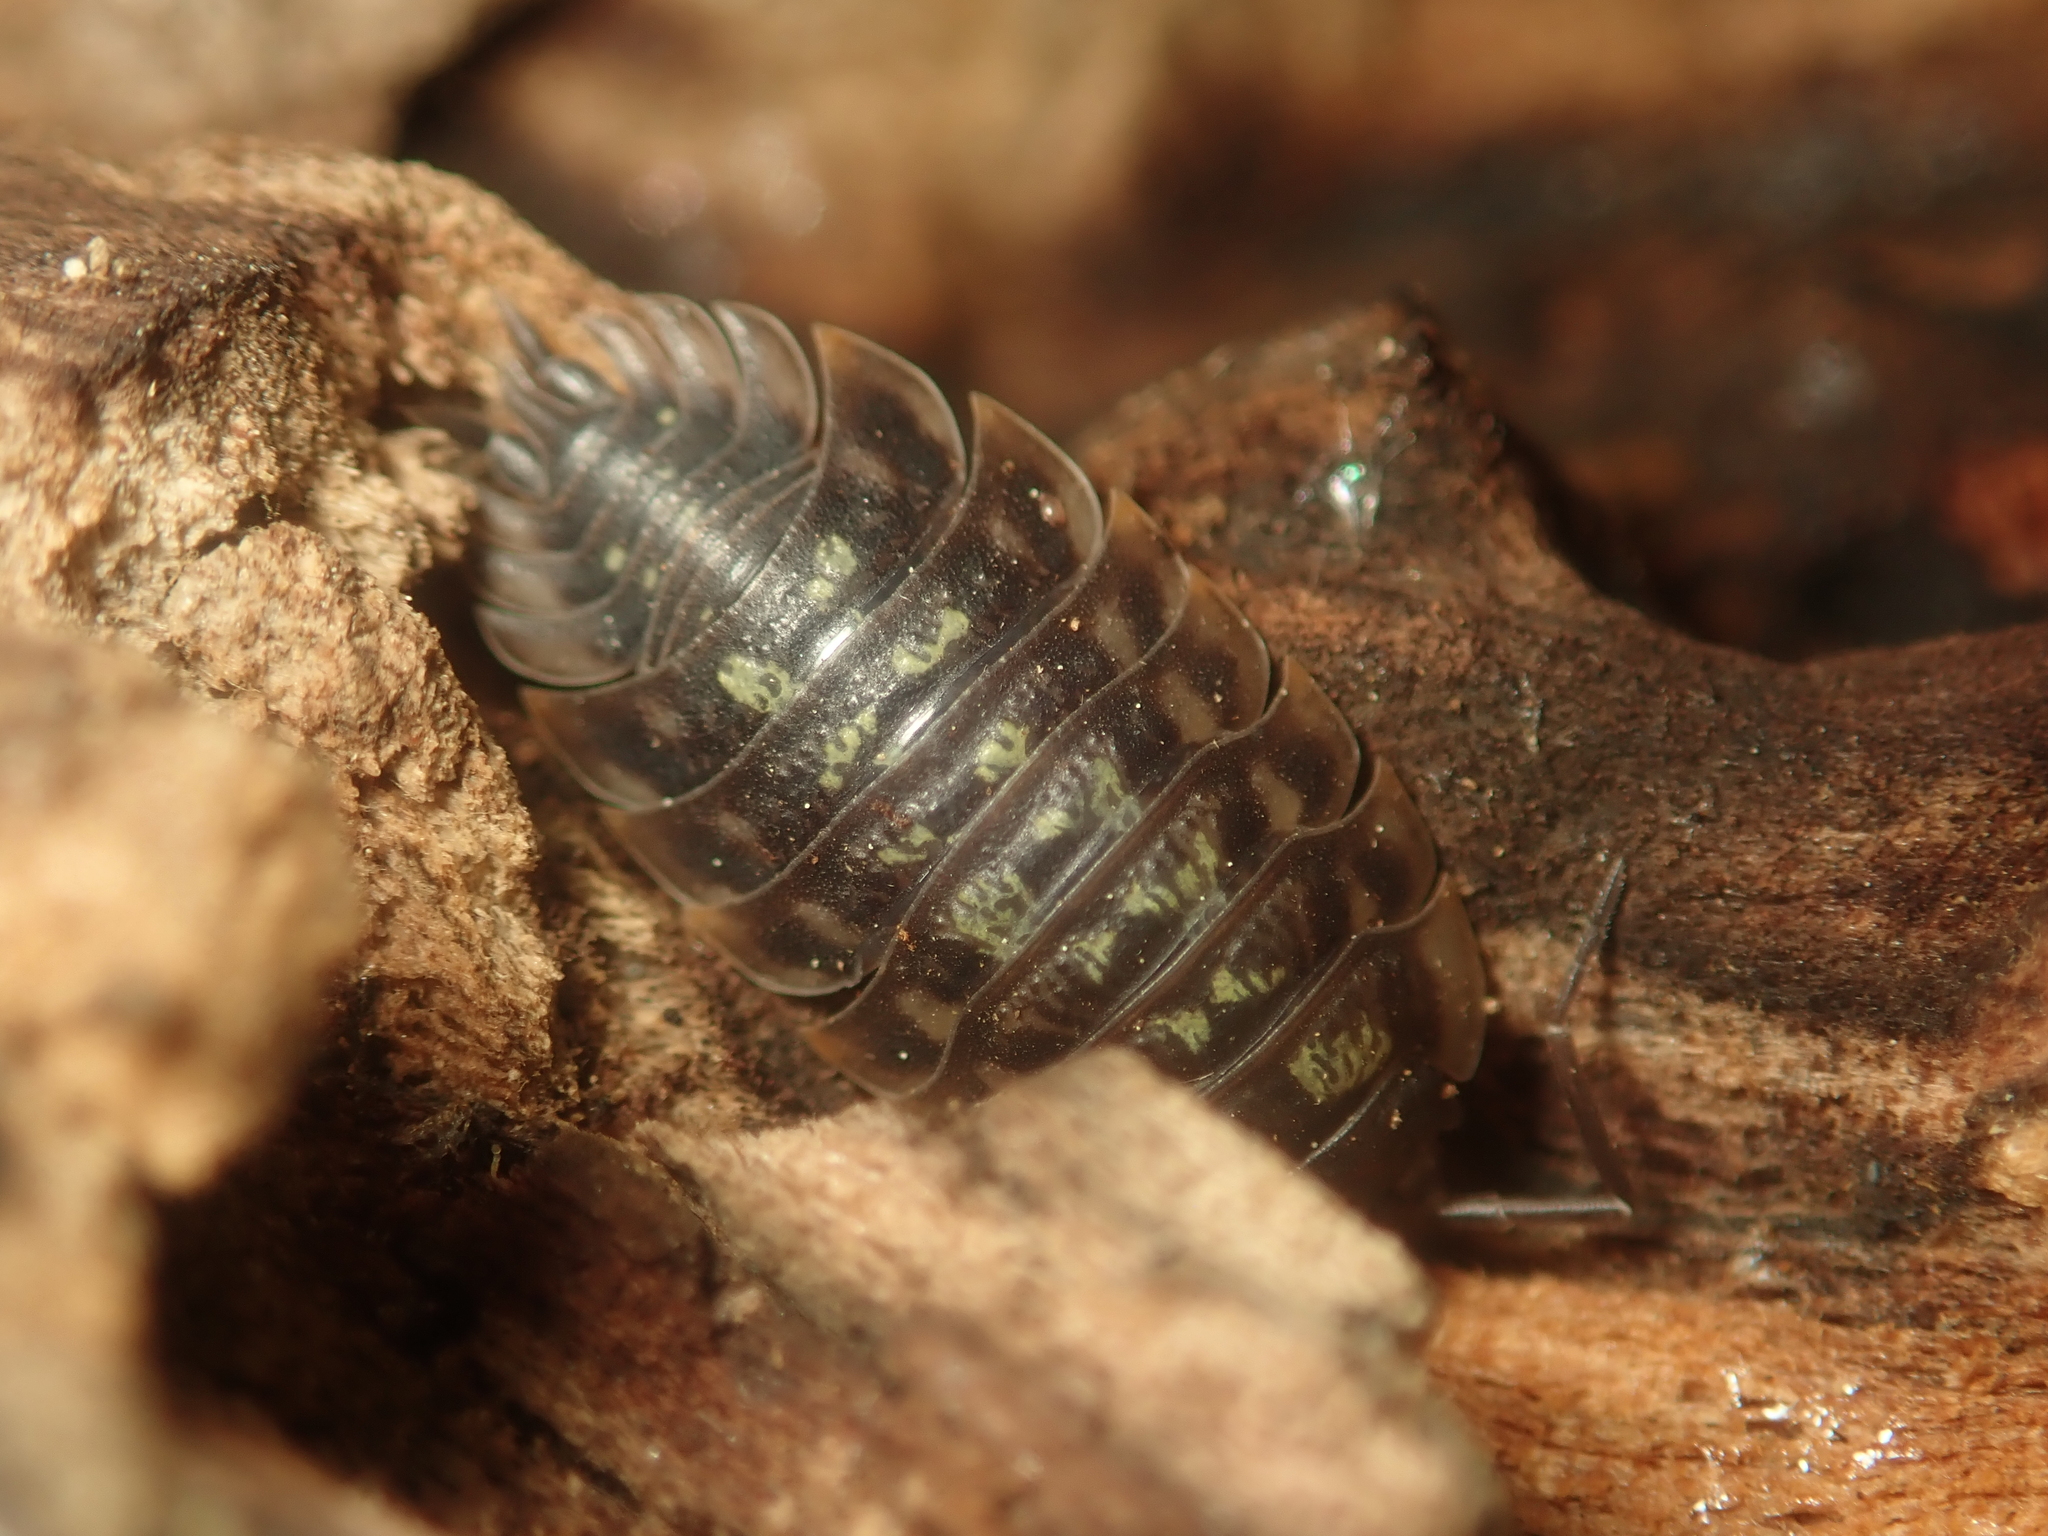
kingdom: Animalia
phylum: Arthropoda
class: Malacostraca
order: Isopoda
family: Oniscidae
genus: Oniscus
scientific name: Oniscus asellus
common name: Common shiny woodlouse
